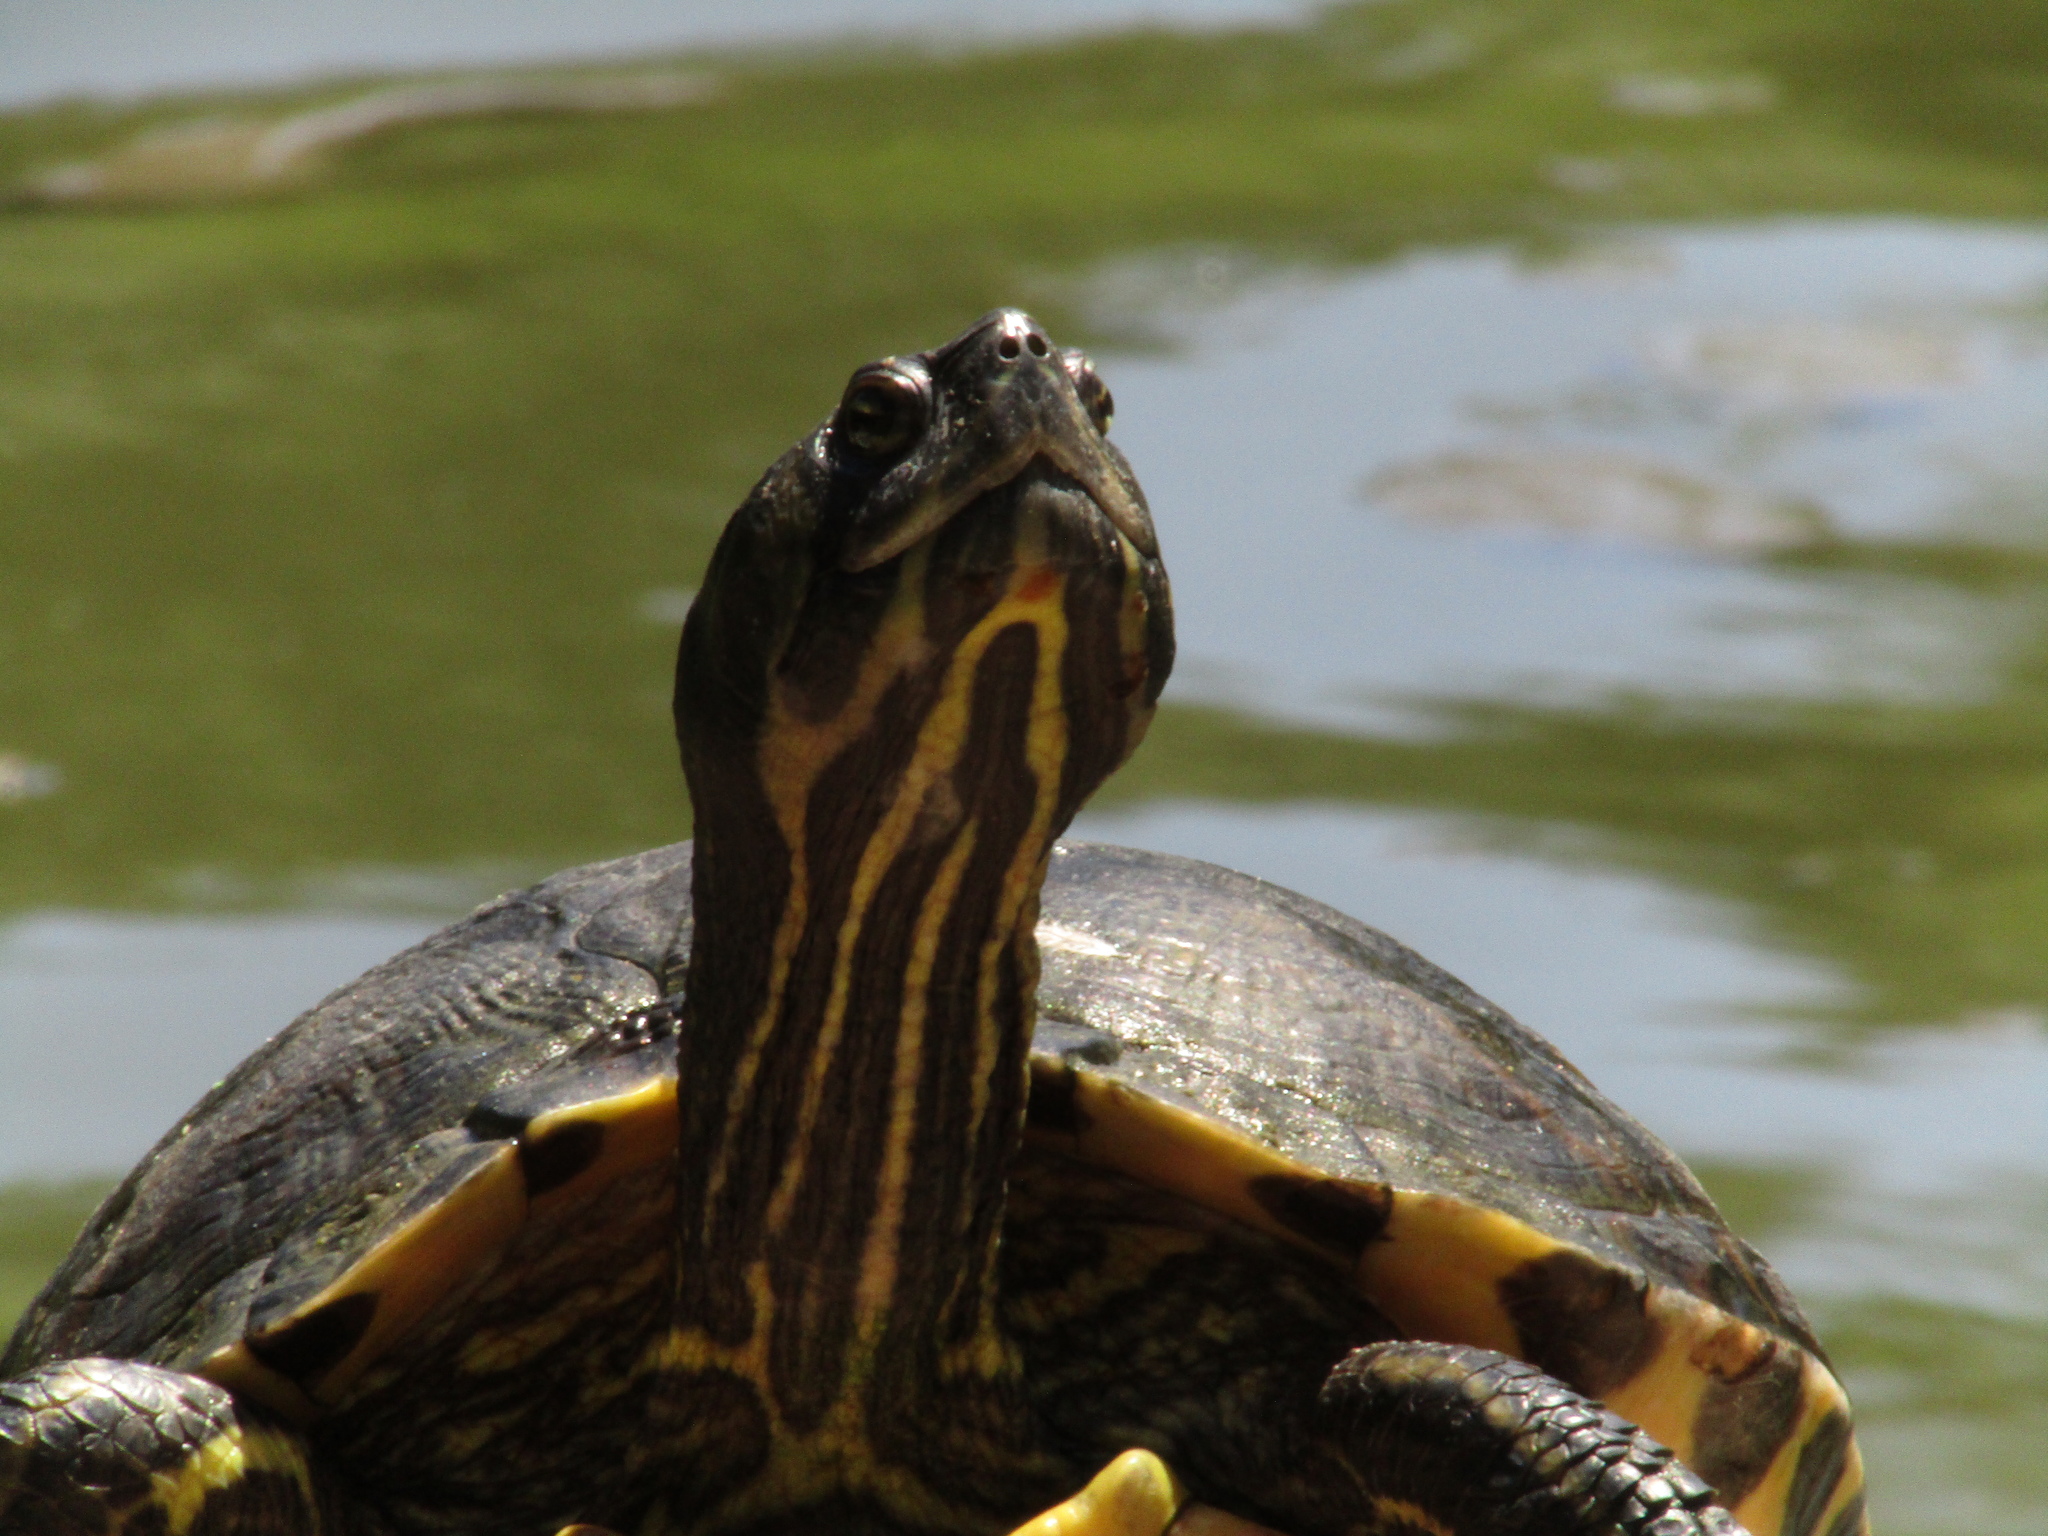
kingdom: Animalia
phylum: Chordata
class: Testudines
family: Emydidae
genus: Trachemys
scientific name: Trachemys scripta
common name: Slider
